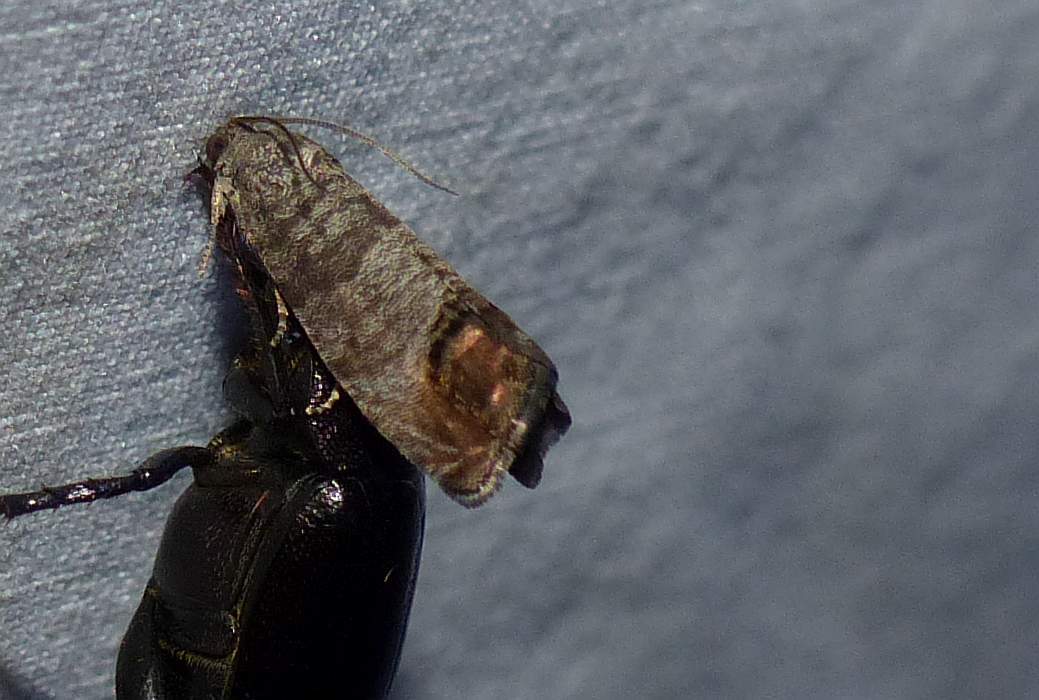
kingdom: Animalia
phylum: Arthropoda
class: Insecta
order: Lepidoptera
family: Tortricidae
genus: Cydia
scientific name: Cydia pomonella
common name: Codling moth
